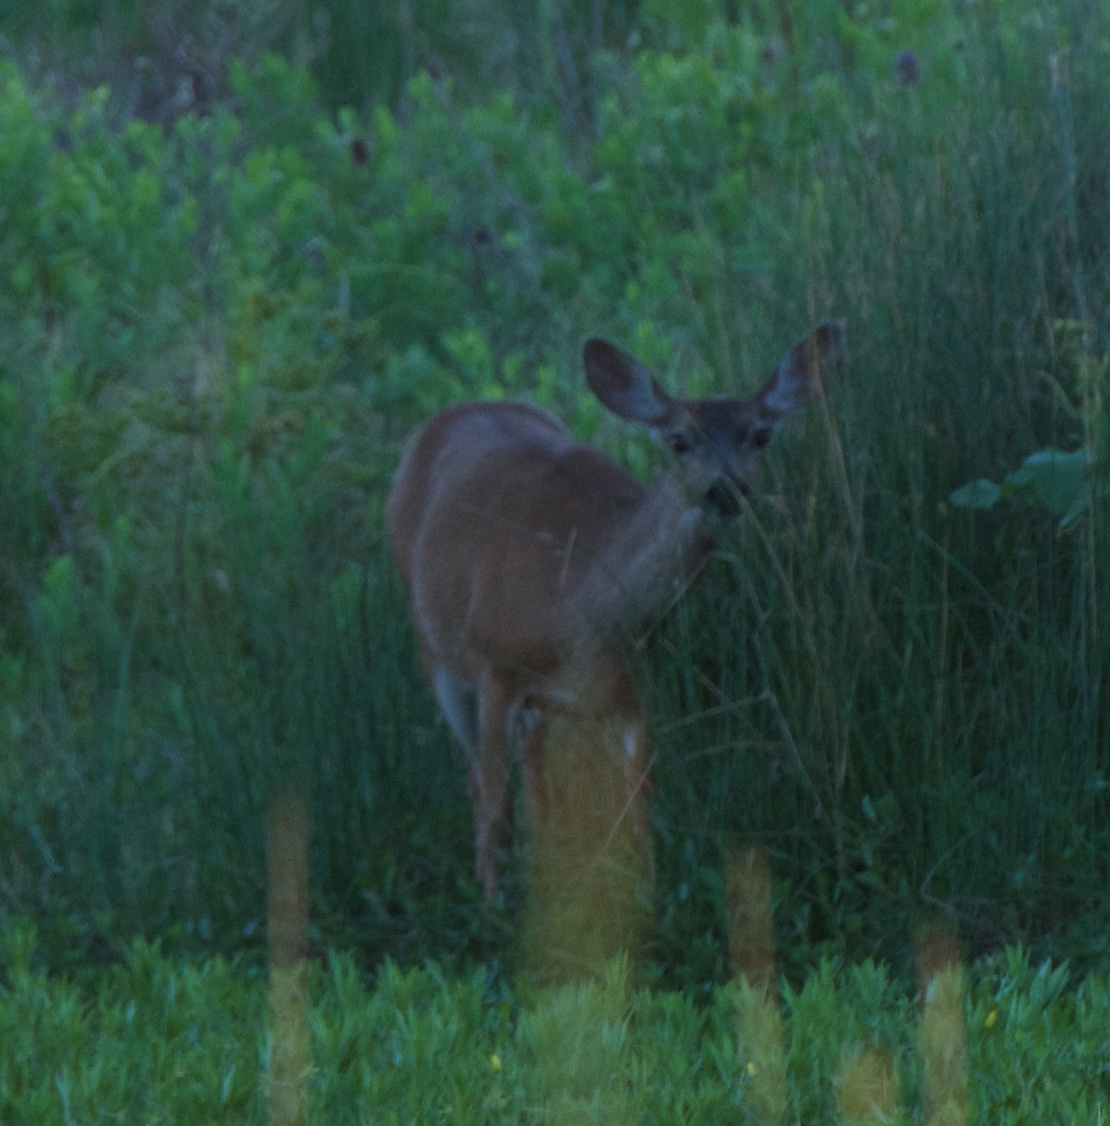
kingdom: Animalia
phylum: Chordata
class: Mammalia
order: Artiodactyla
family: Cervidae
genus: Odocoileus
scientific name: Odocoileus hemionus
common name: Mule deer
